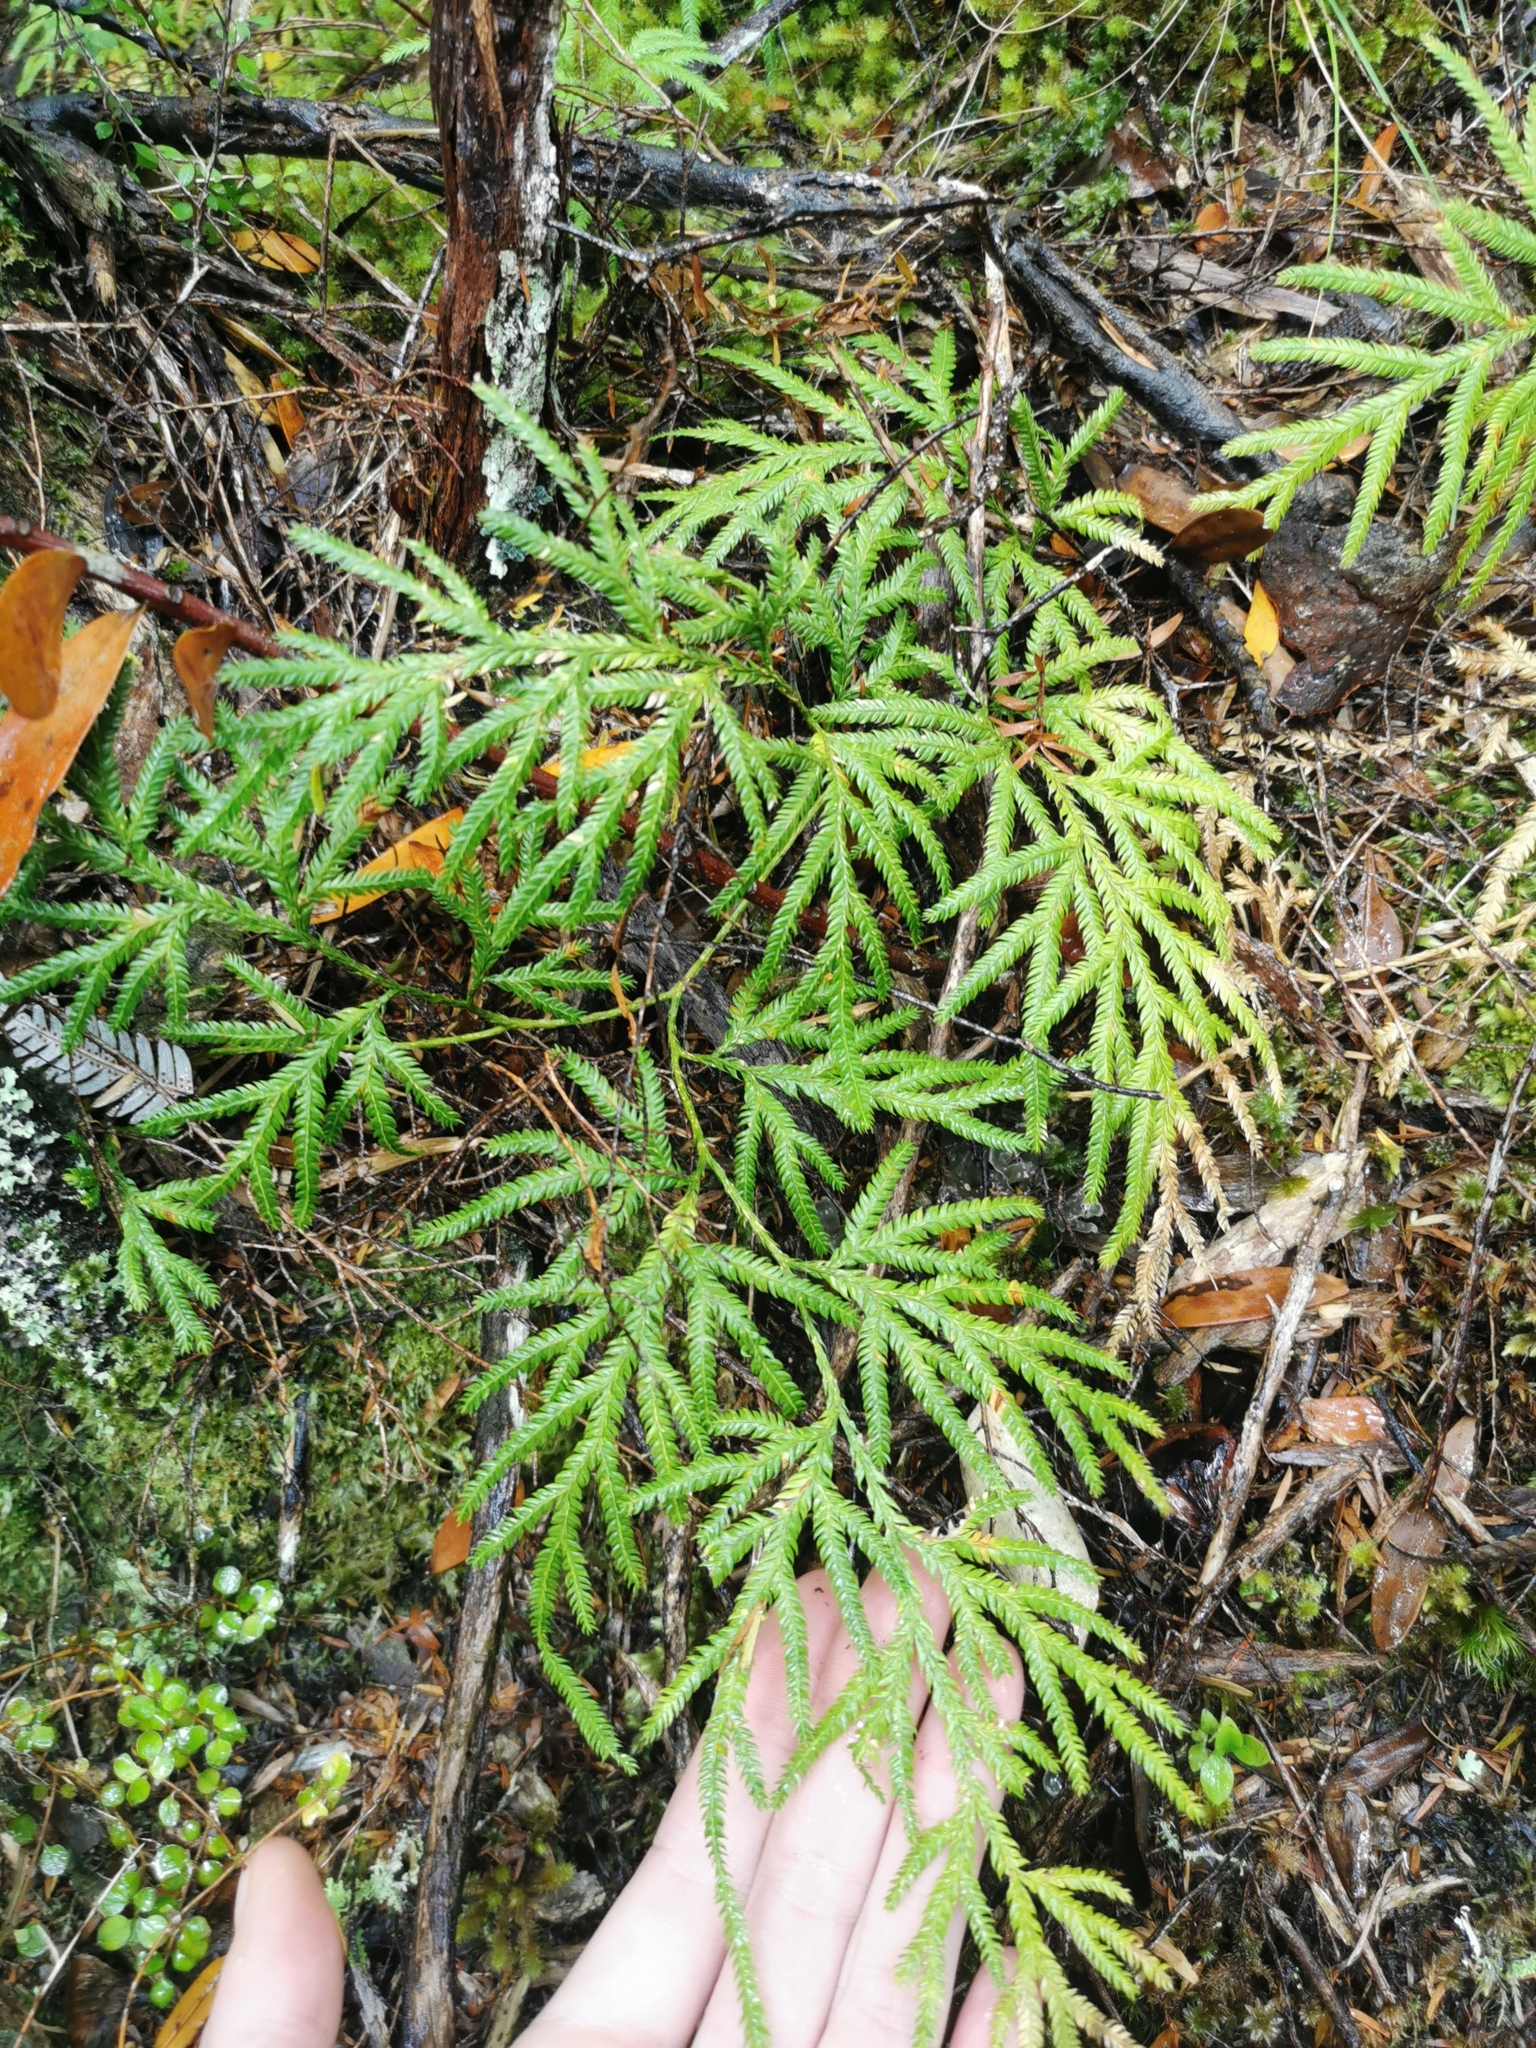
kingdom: Plantae
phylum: Tracheophyta
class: Lycopodiopsida
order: Lycopodiales
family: Lycopodiaceae
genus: Lycopodium
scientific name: Lycopodium volubile
